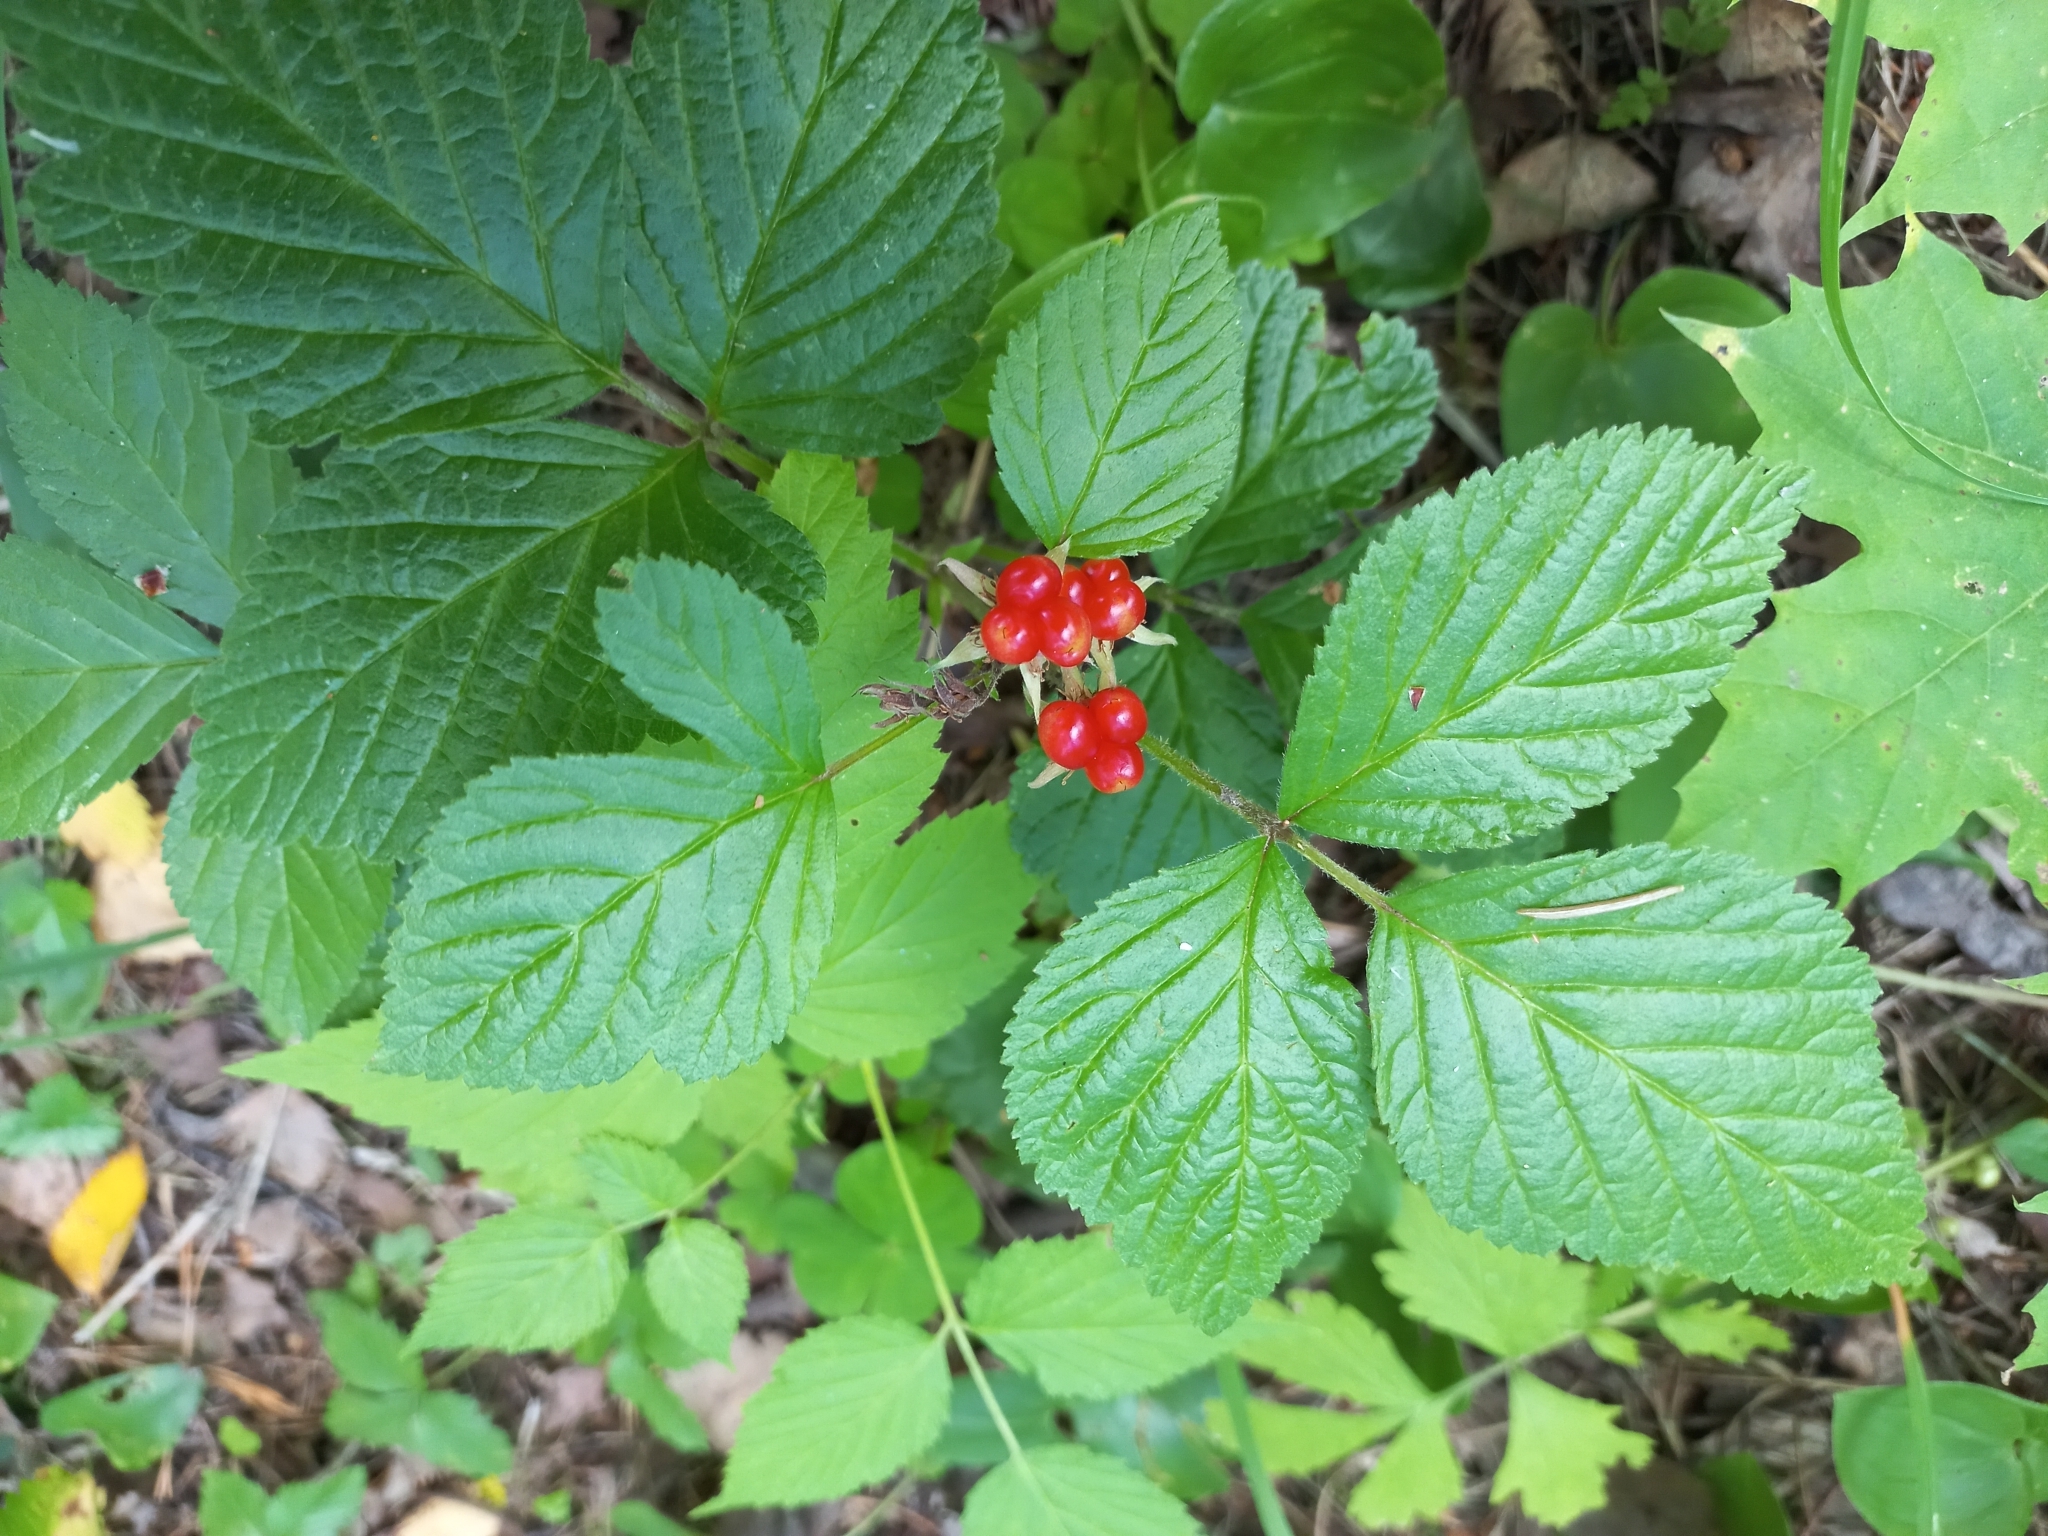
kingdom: Plantae
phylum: Tracheophyta
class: Magnoliopsida
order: Rosales
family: Rosaceae
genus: Rubus
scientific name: Rubus saxatilis
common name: Stone bramble
